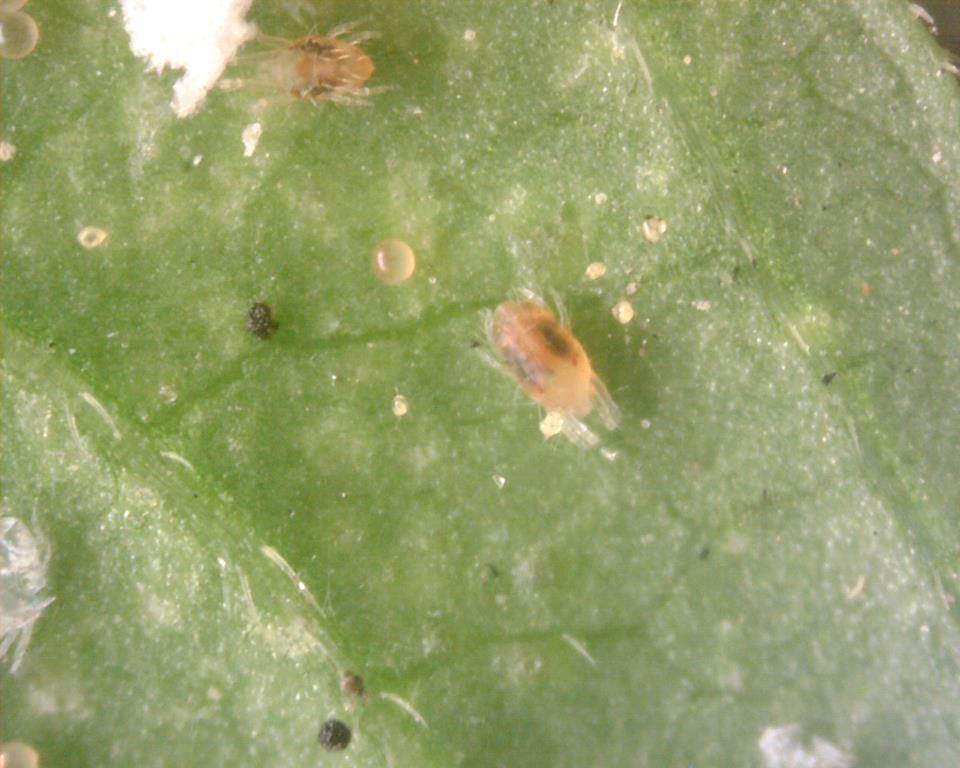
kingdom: Animalia
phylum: Arthropoda
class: Arachnida
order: Trombidiformes
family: Tetranychidae
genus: Tetranychus
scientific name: Tetranychus urticae
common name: Carmine spider mite
